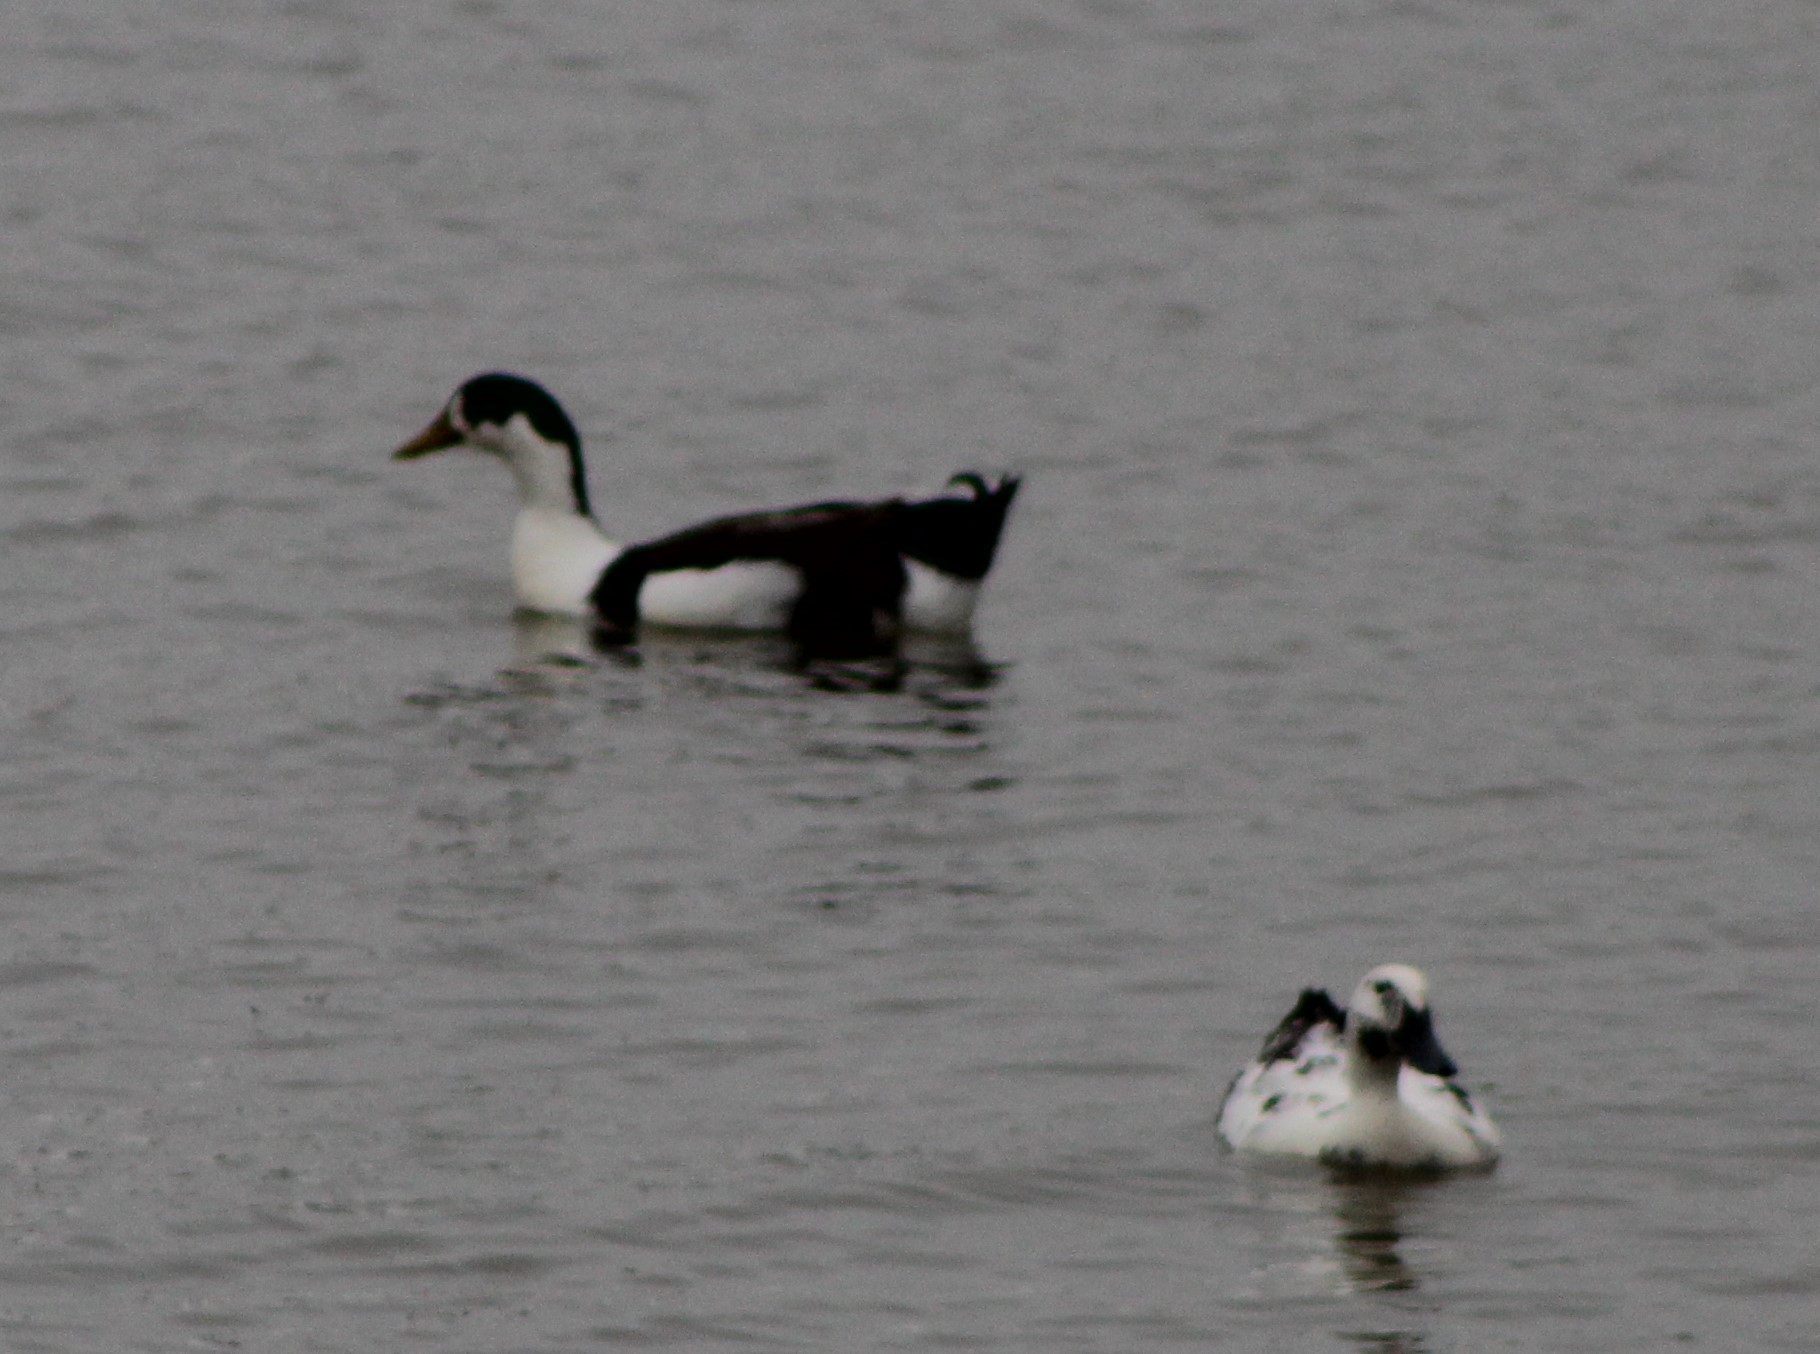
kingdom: Animalia
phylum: Chordata
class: Aves
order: Anseriformes
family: Anatidae
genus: Anas
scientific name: Anas platyrhynchos
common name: Mallard
